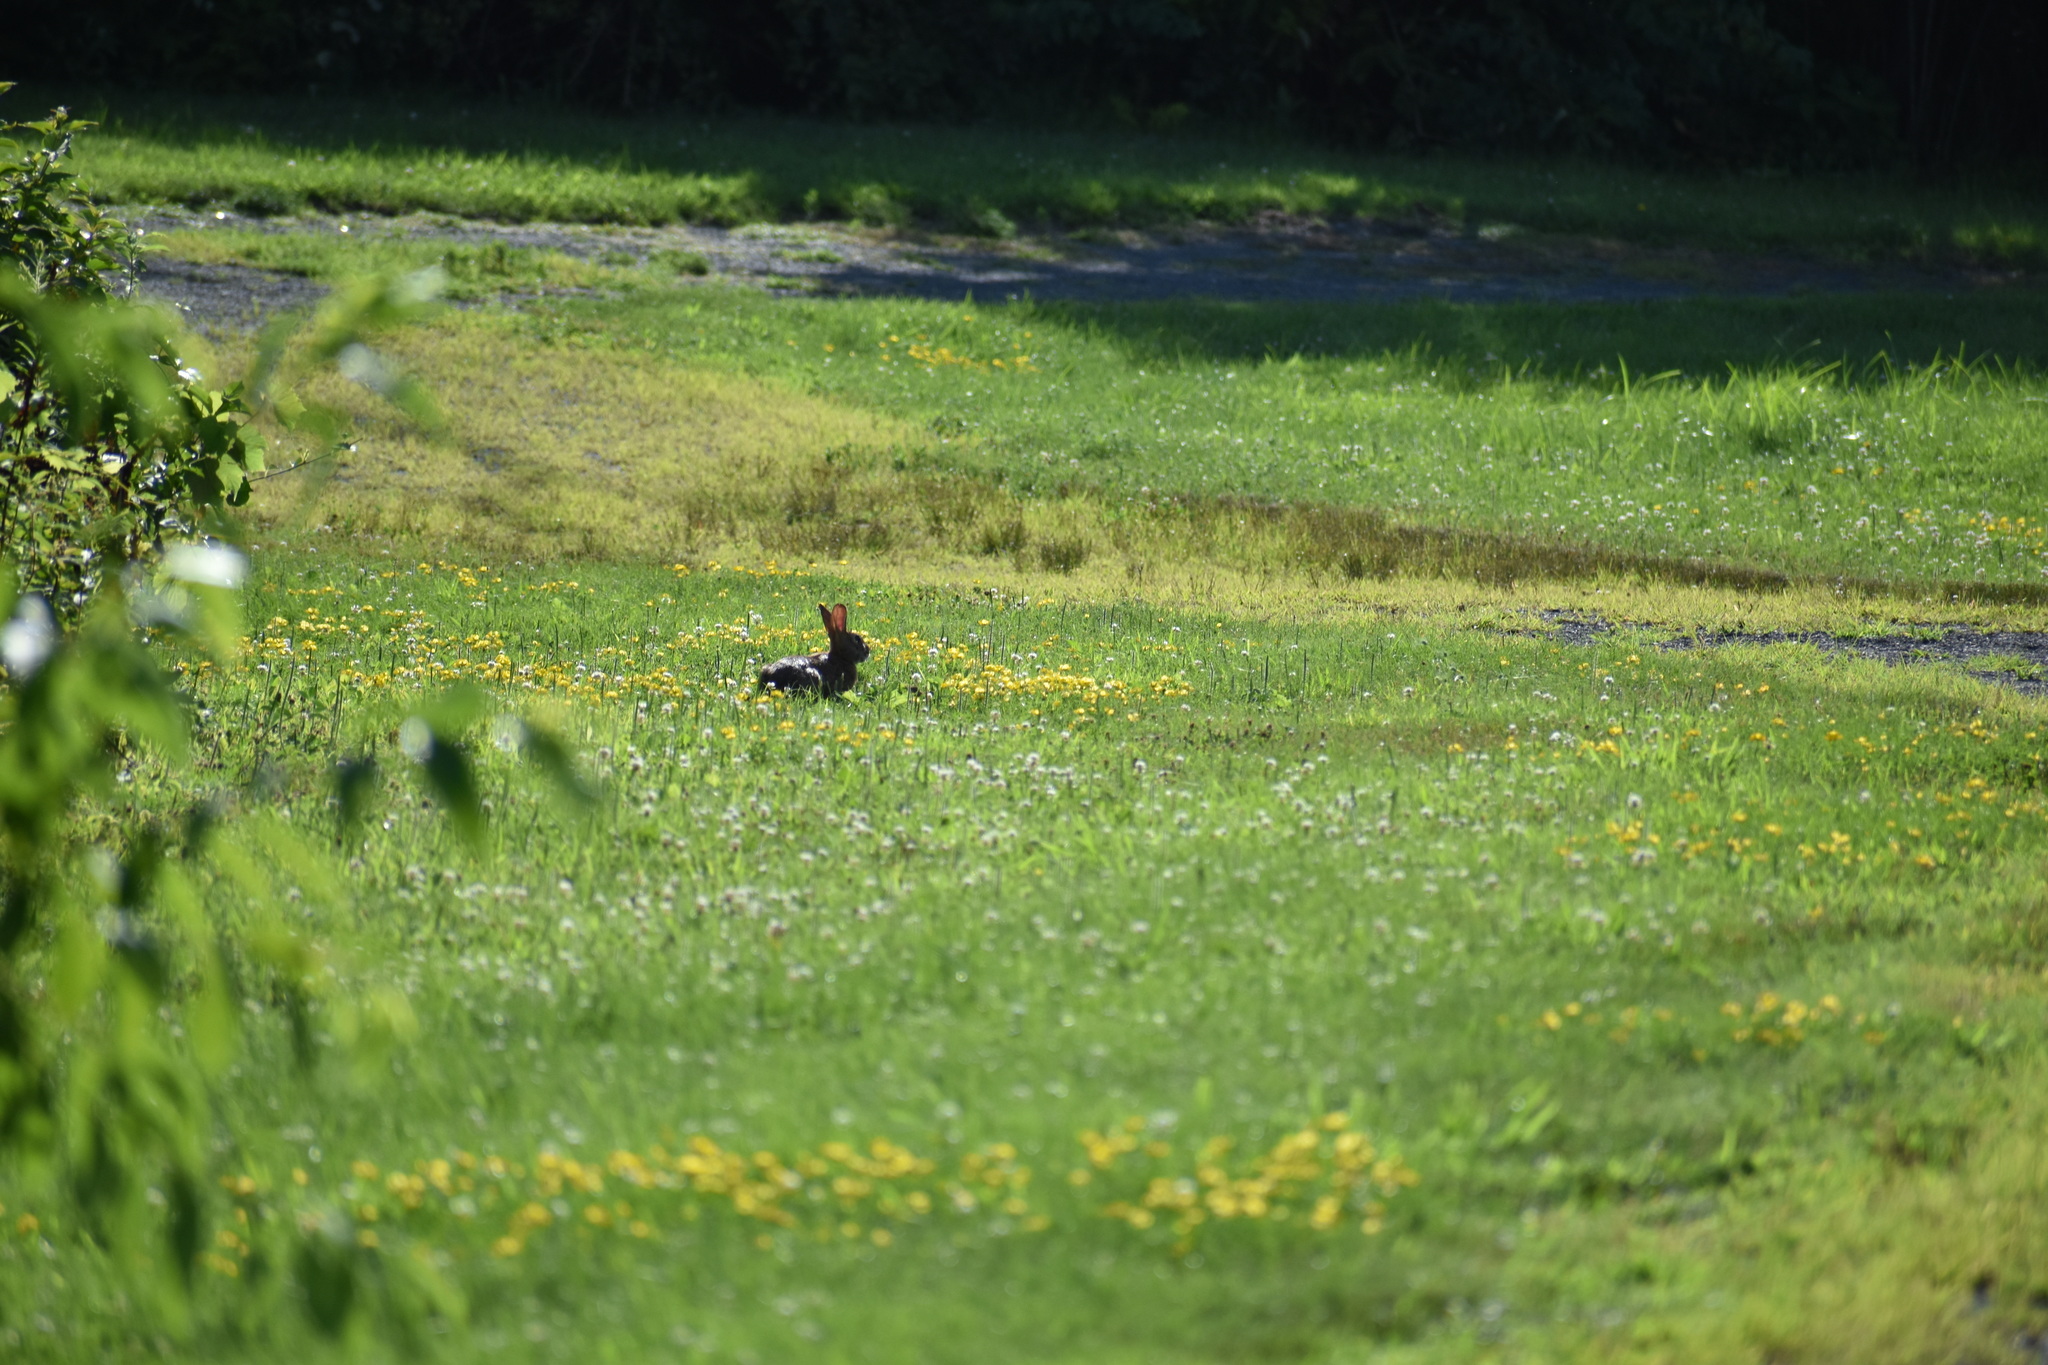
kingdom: Animalia
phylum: Chordata
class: Mammalia
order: Lagomorpha
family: Leporidae
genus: Sylvilagus
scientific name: Sylvilagus floridanus
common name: Eastern cottontail
